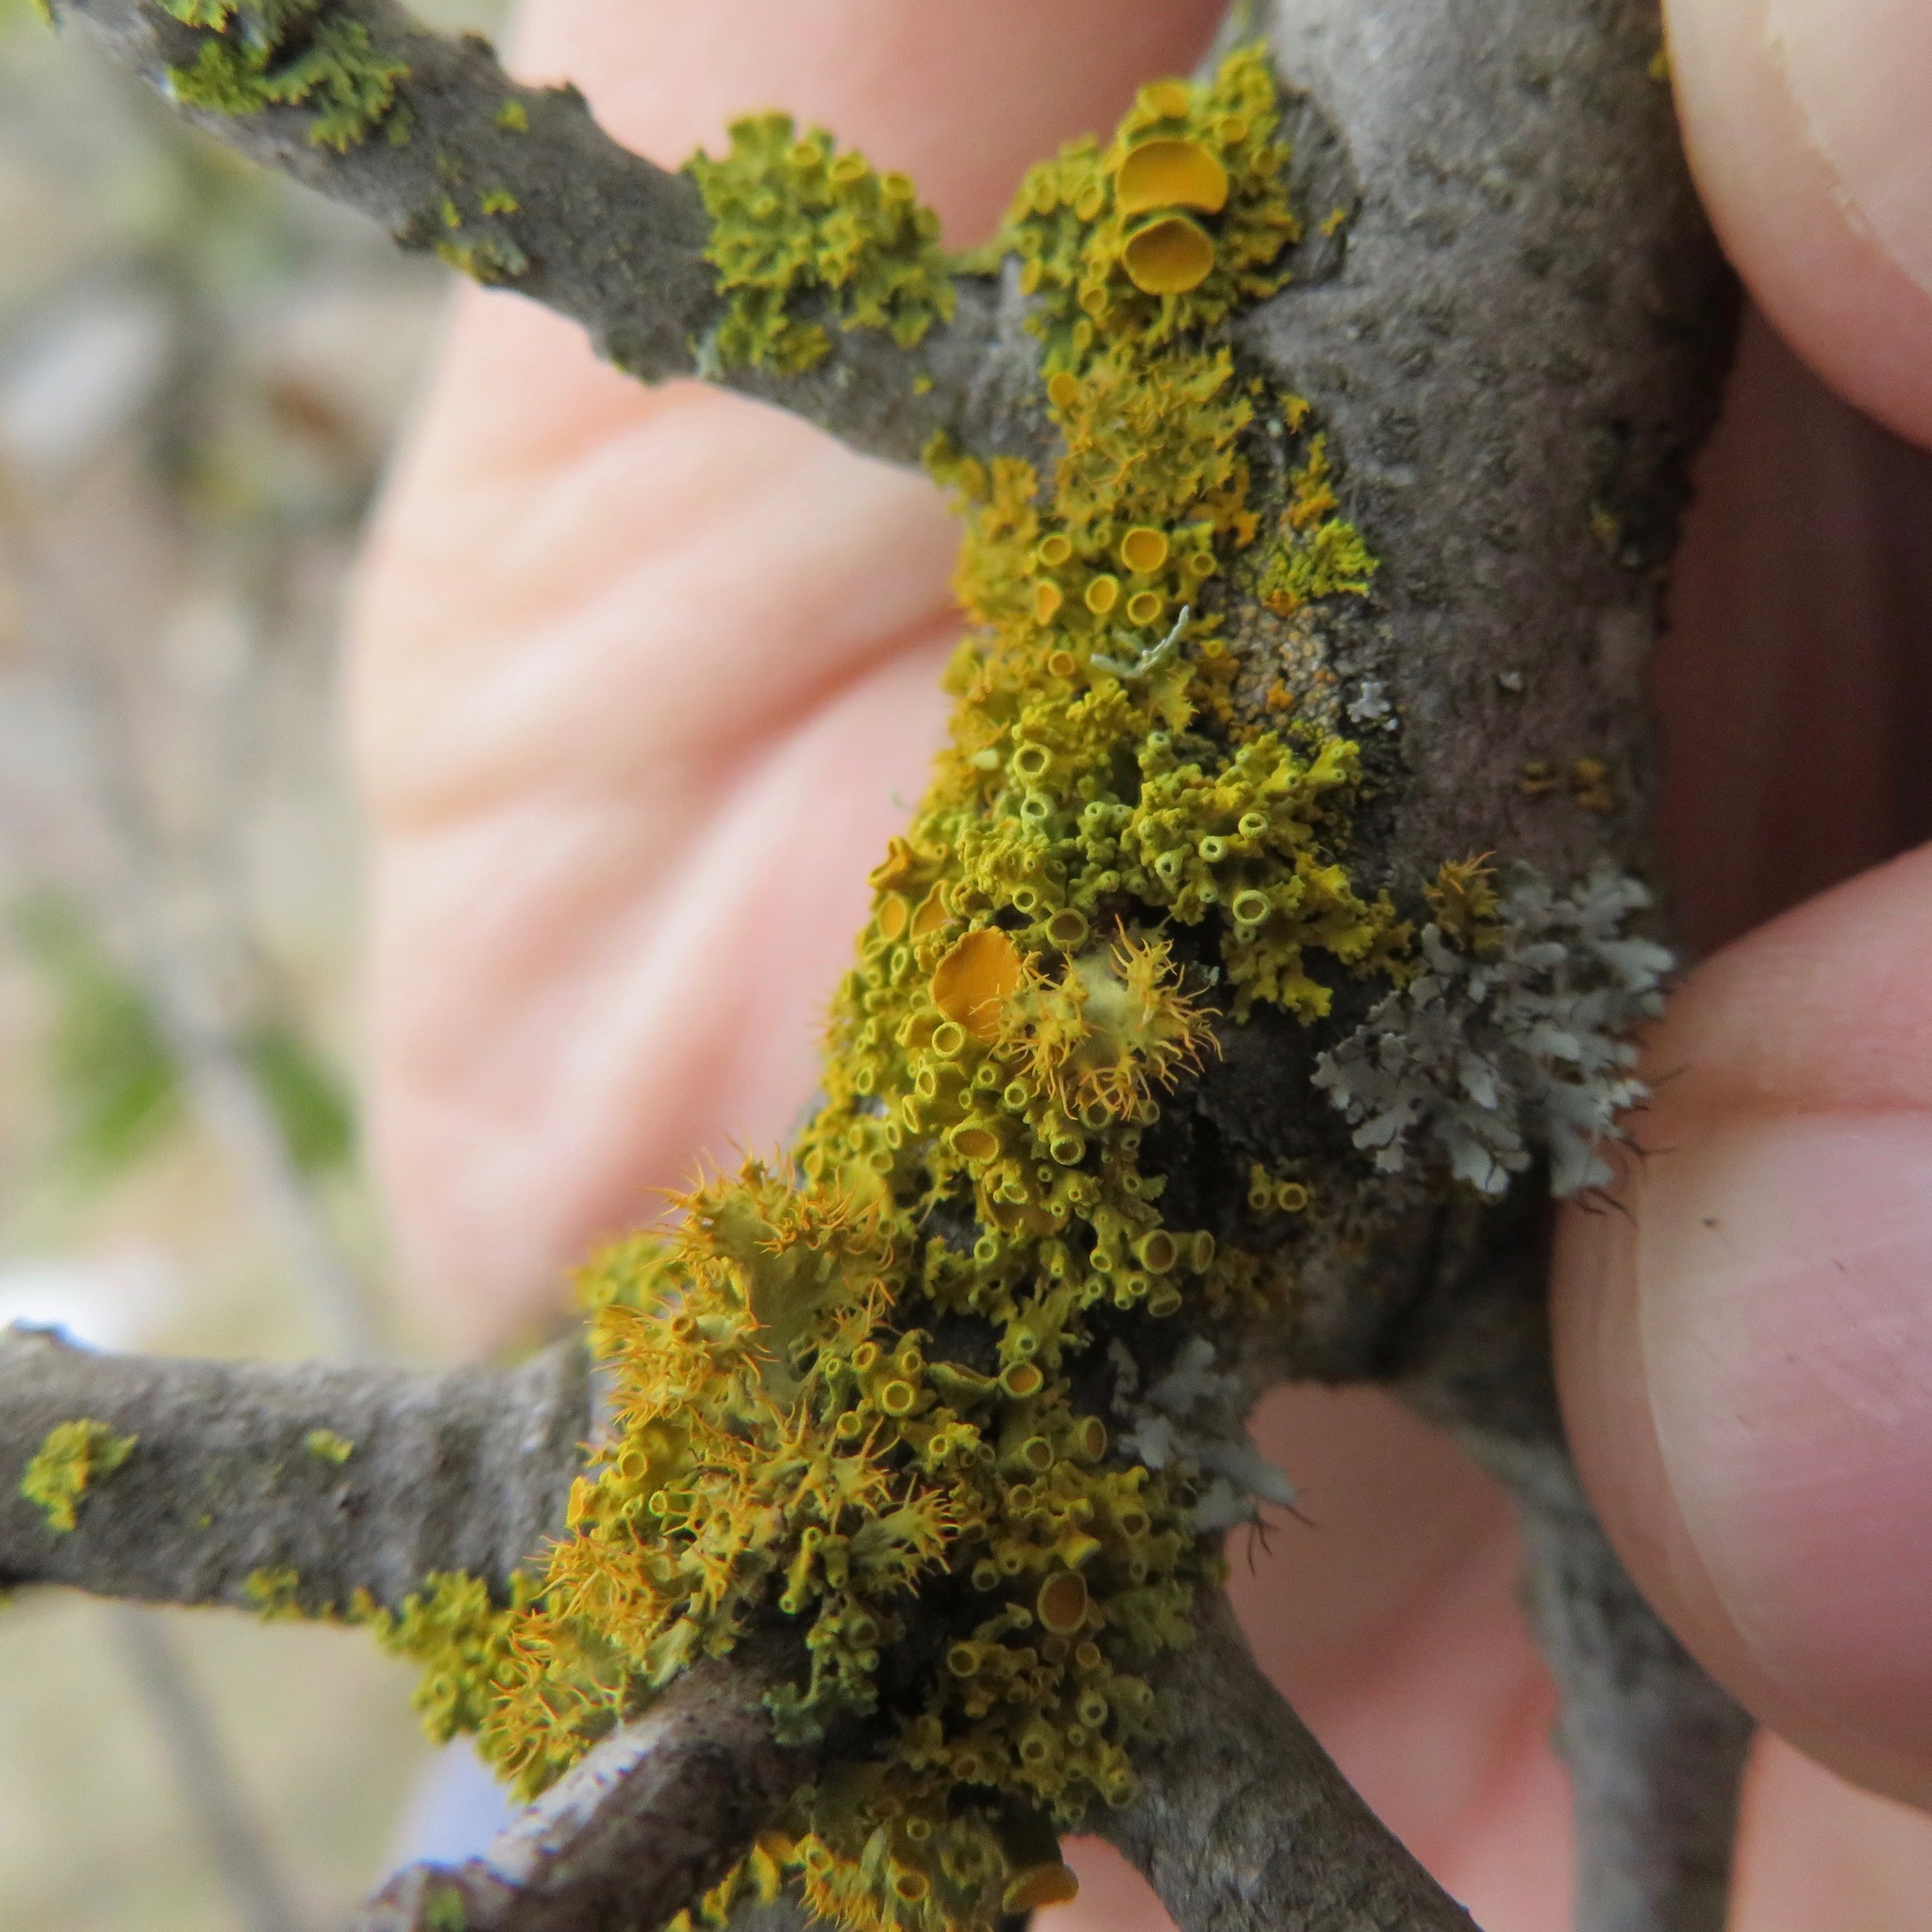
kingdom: Fungi
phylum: Ascomycota
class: Lecanoromycetes
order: Teloschistales
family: Teloschistaceae
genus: Niorma
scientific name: Niorma chrysophthalma
